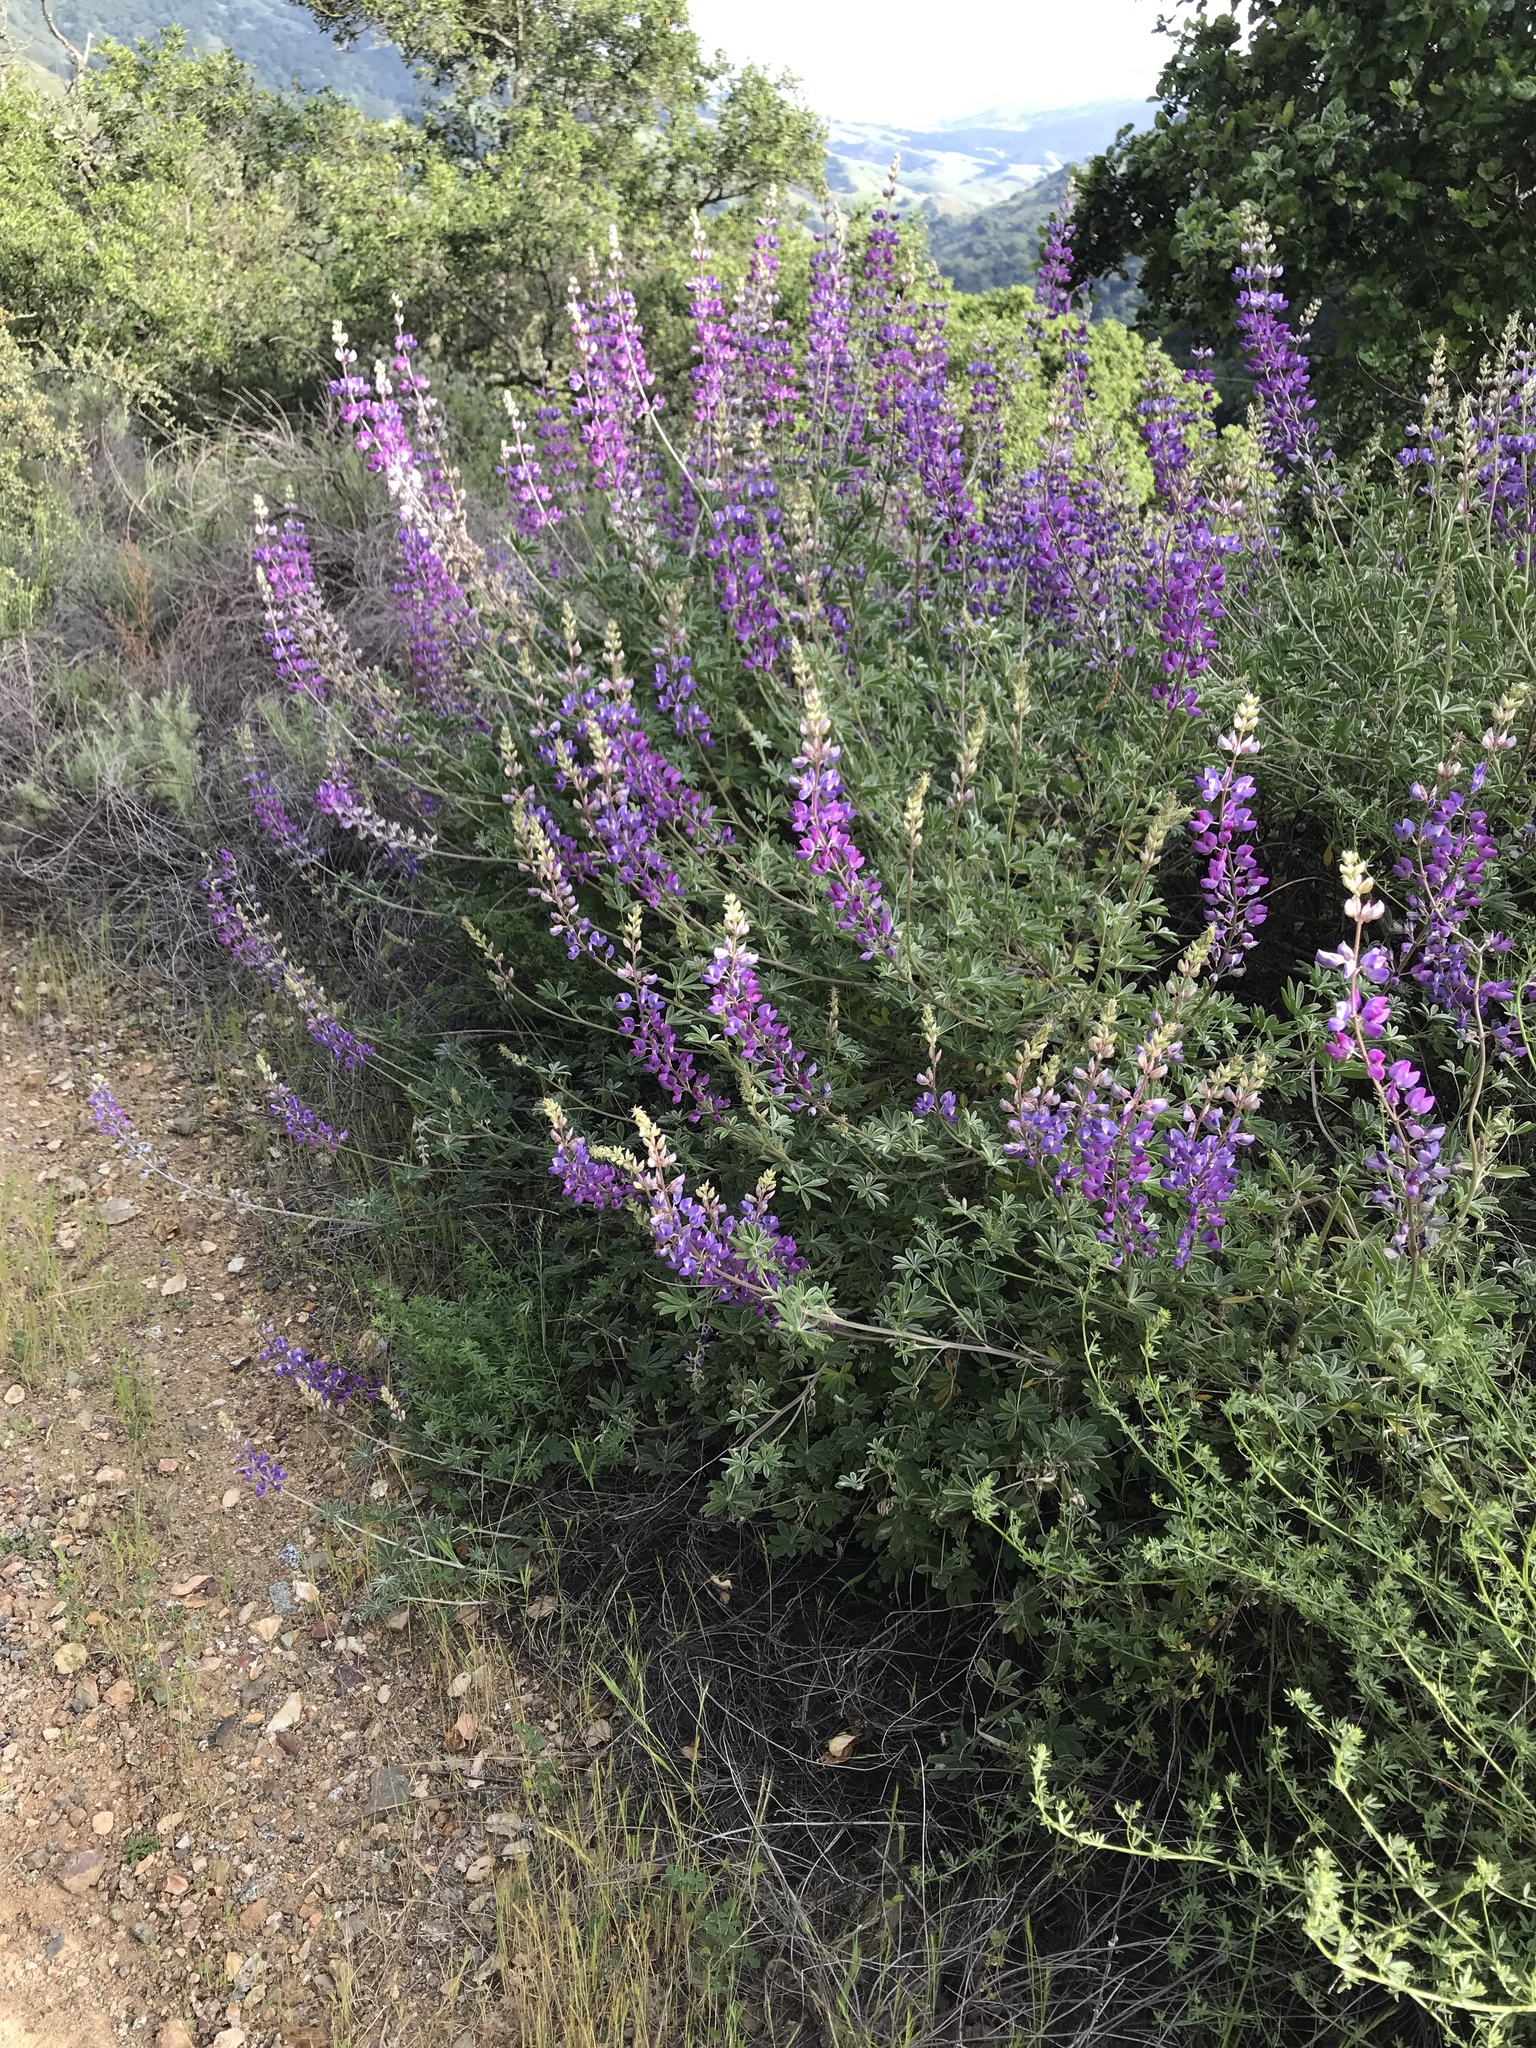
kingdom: Plantae
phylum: Tracheophyta
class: Magnoliopsida
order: Fabales
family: Fabaceae
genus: Lupinus
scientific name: Lupinus albifrons
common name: Foothill lupine
